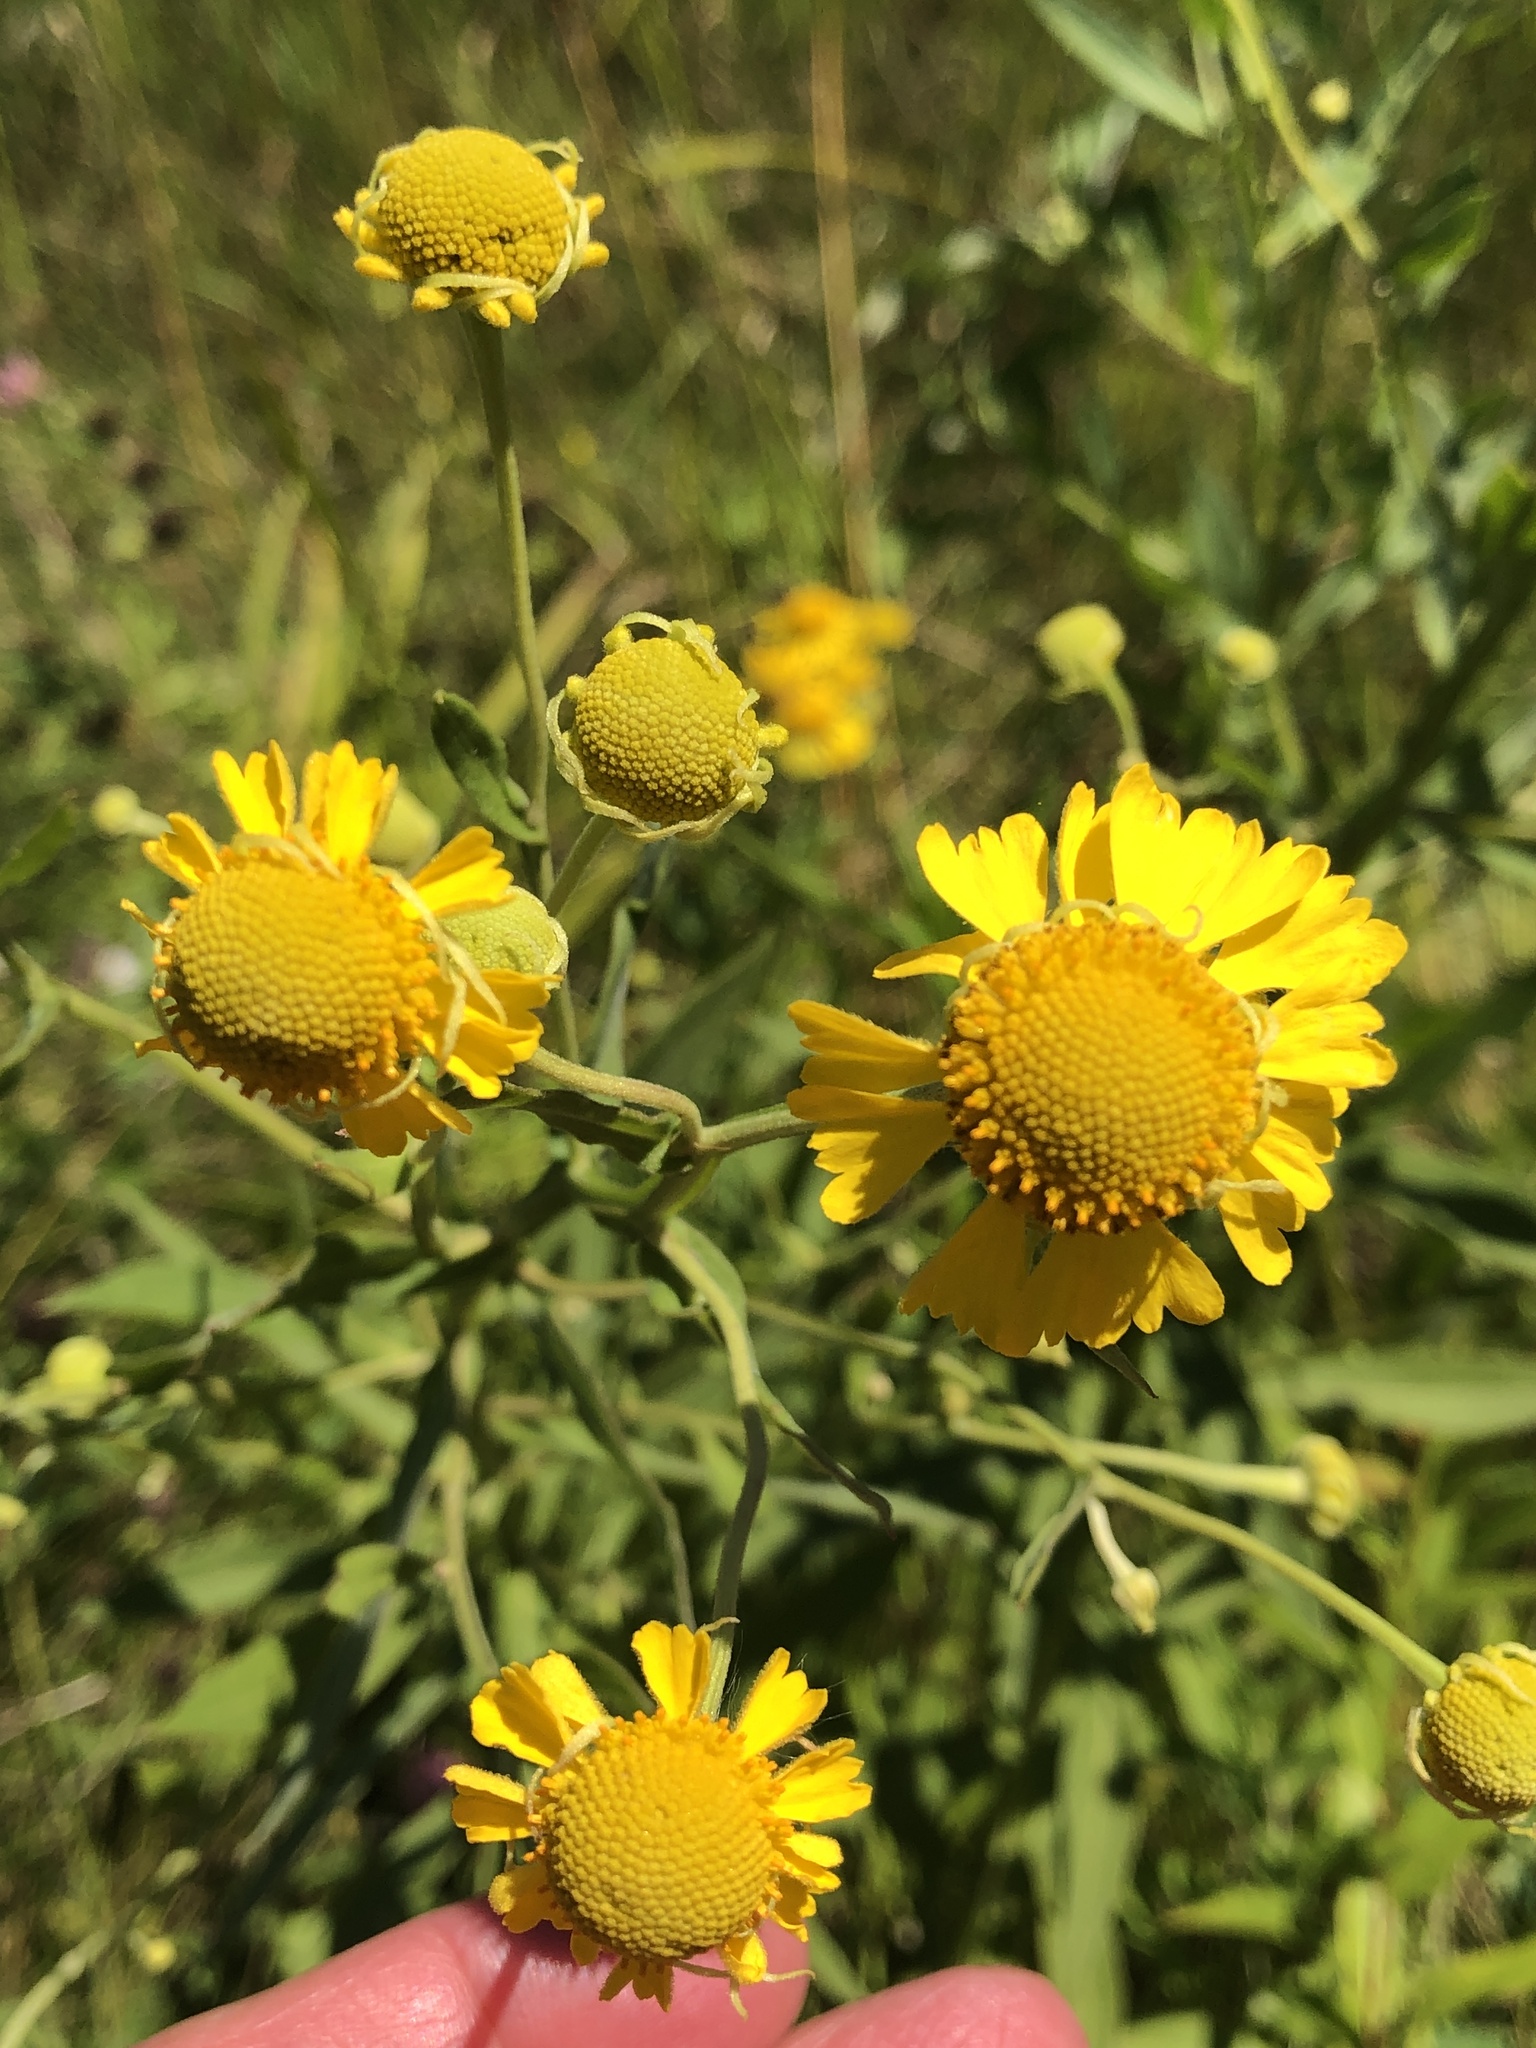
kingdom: Plantae
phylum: Tracheophyta
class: Magnoliopsida
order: Asterales
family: Asteraceae
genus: Helenium
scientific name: Helenium autumnale
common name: Sneezeweed
